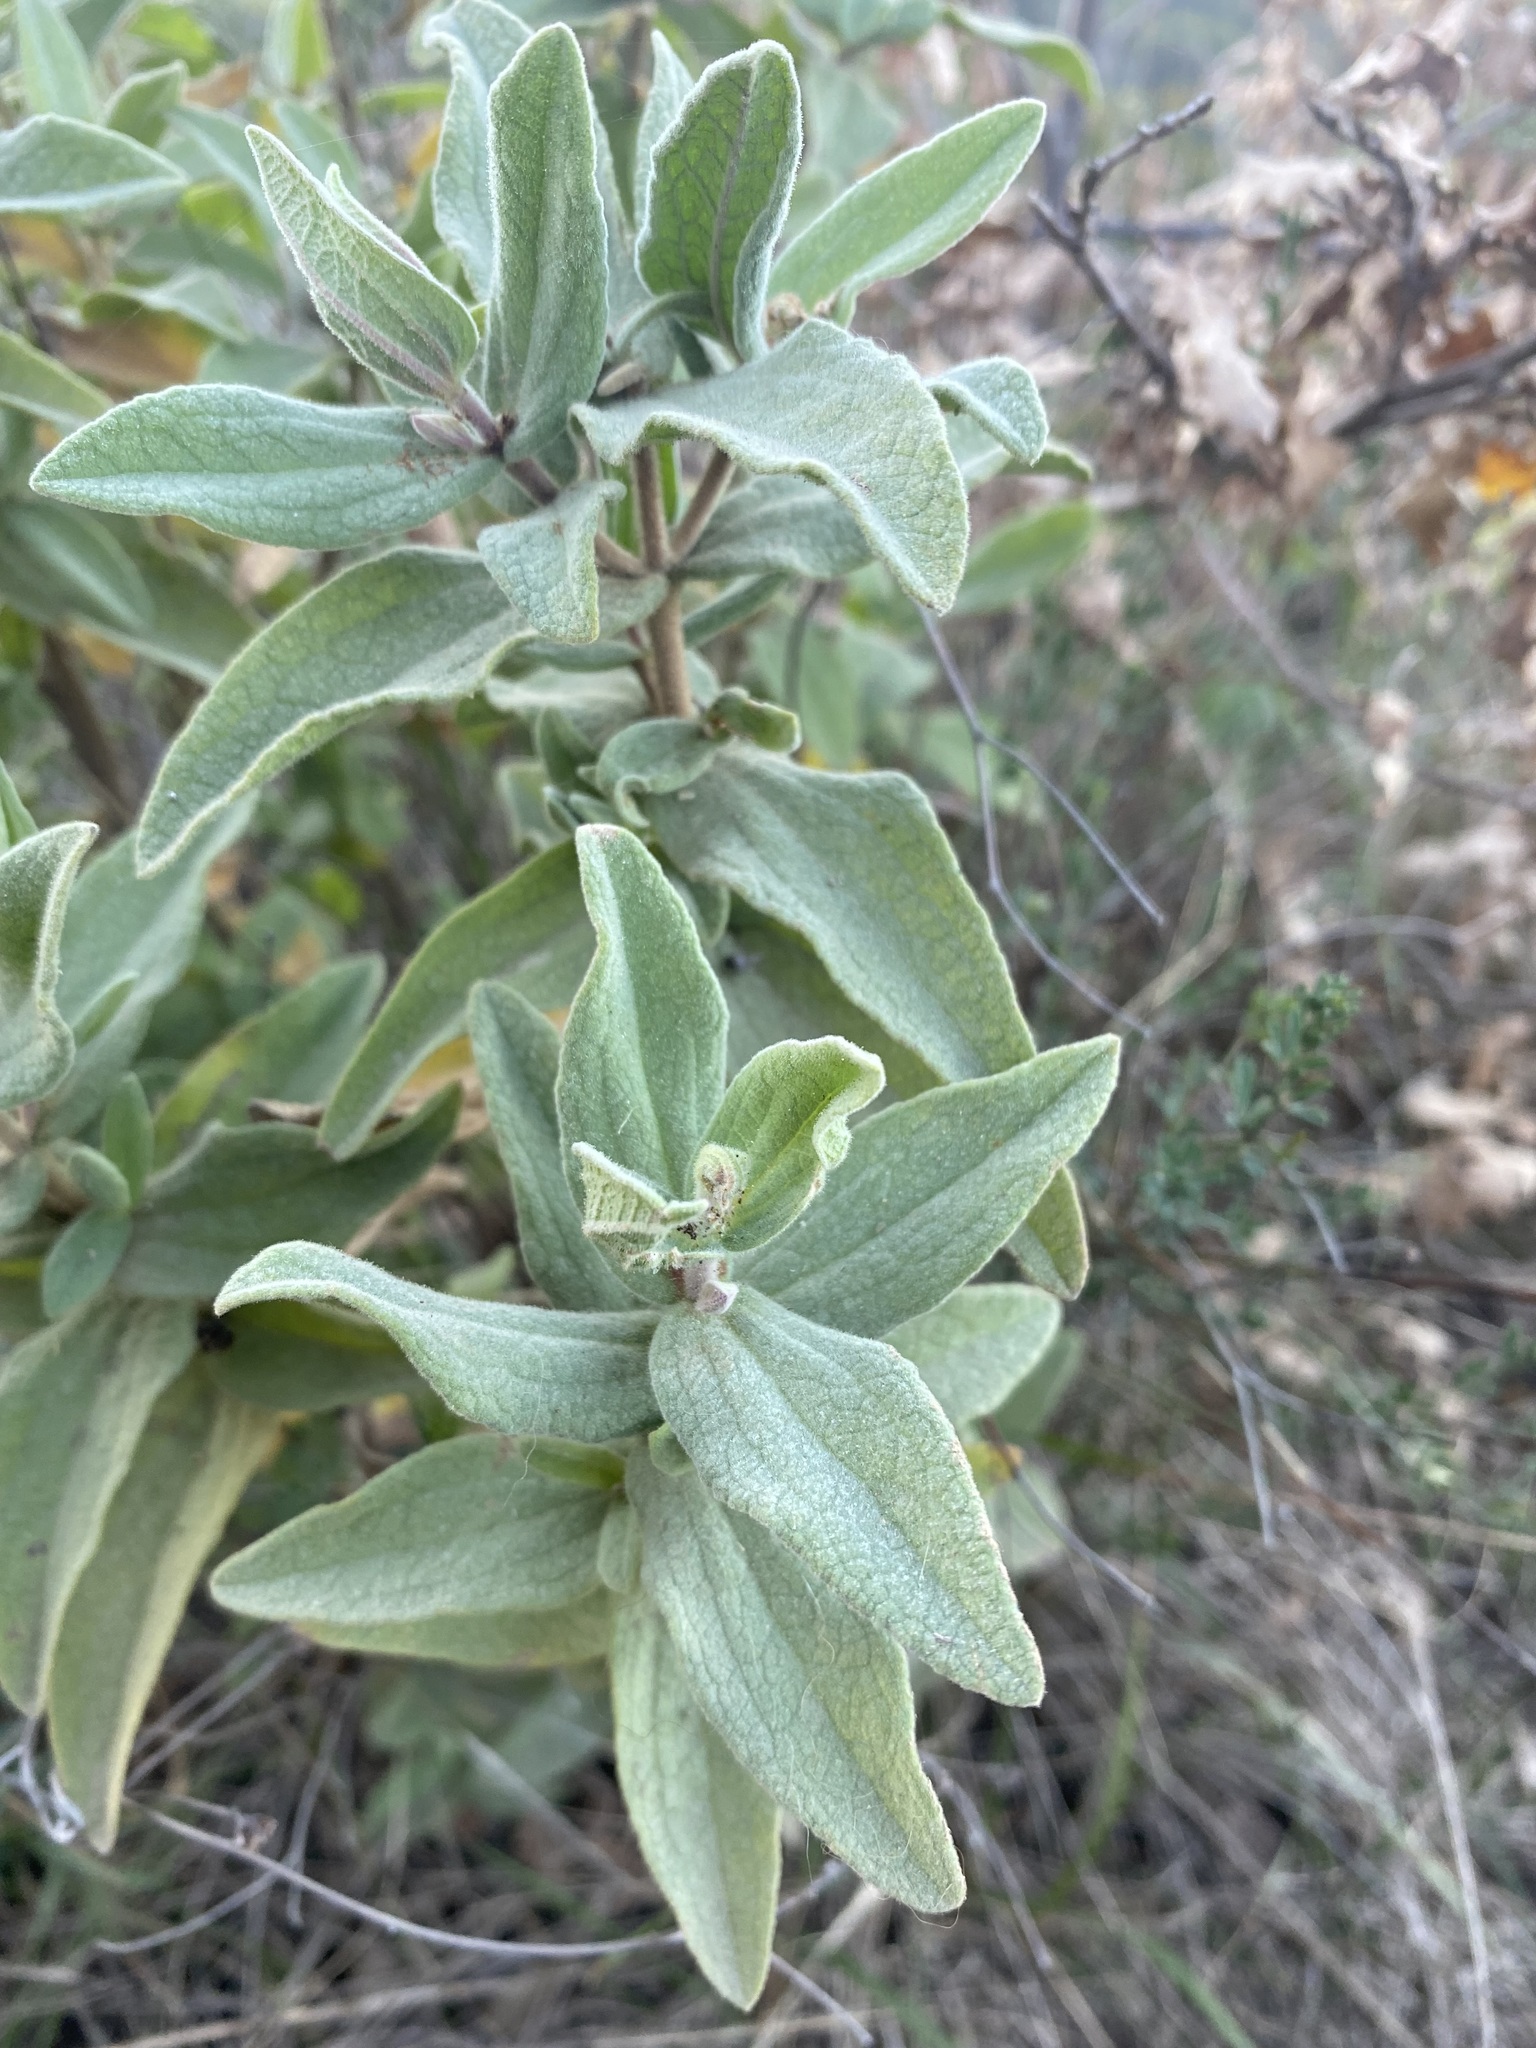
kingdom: Plantae
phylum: Tracheophyta
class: Magnoliopsida
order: Malvales
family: Cistaceae
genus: Cistus
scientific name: Cistus albidus
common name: White-leaf rock-rose
